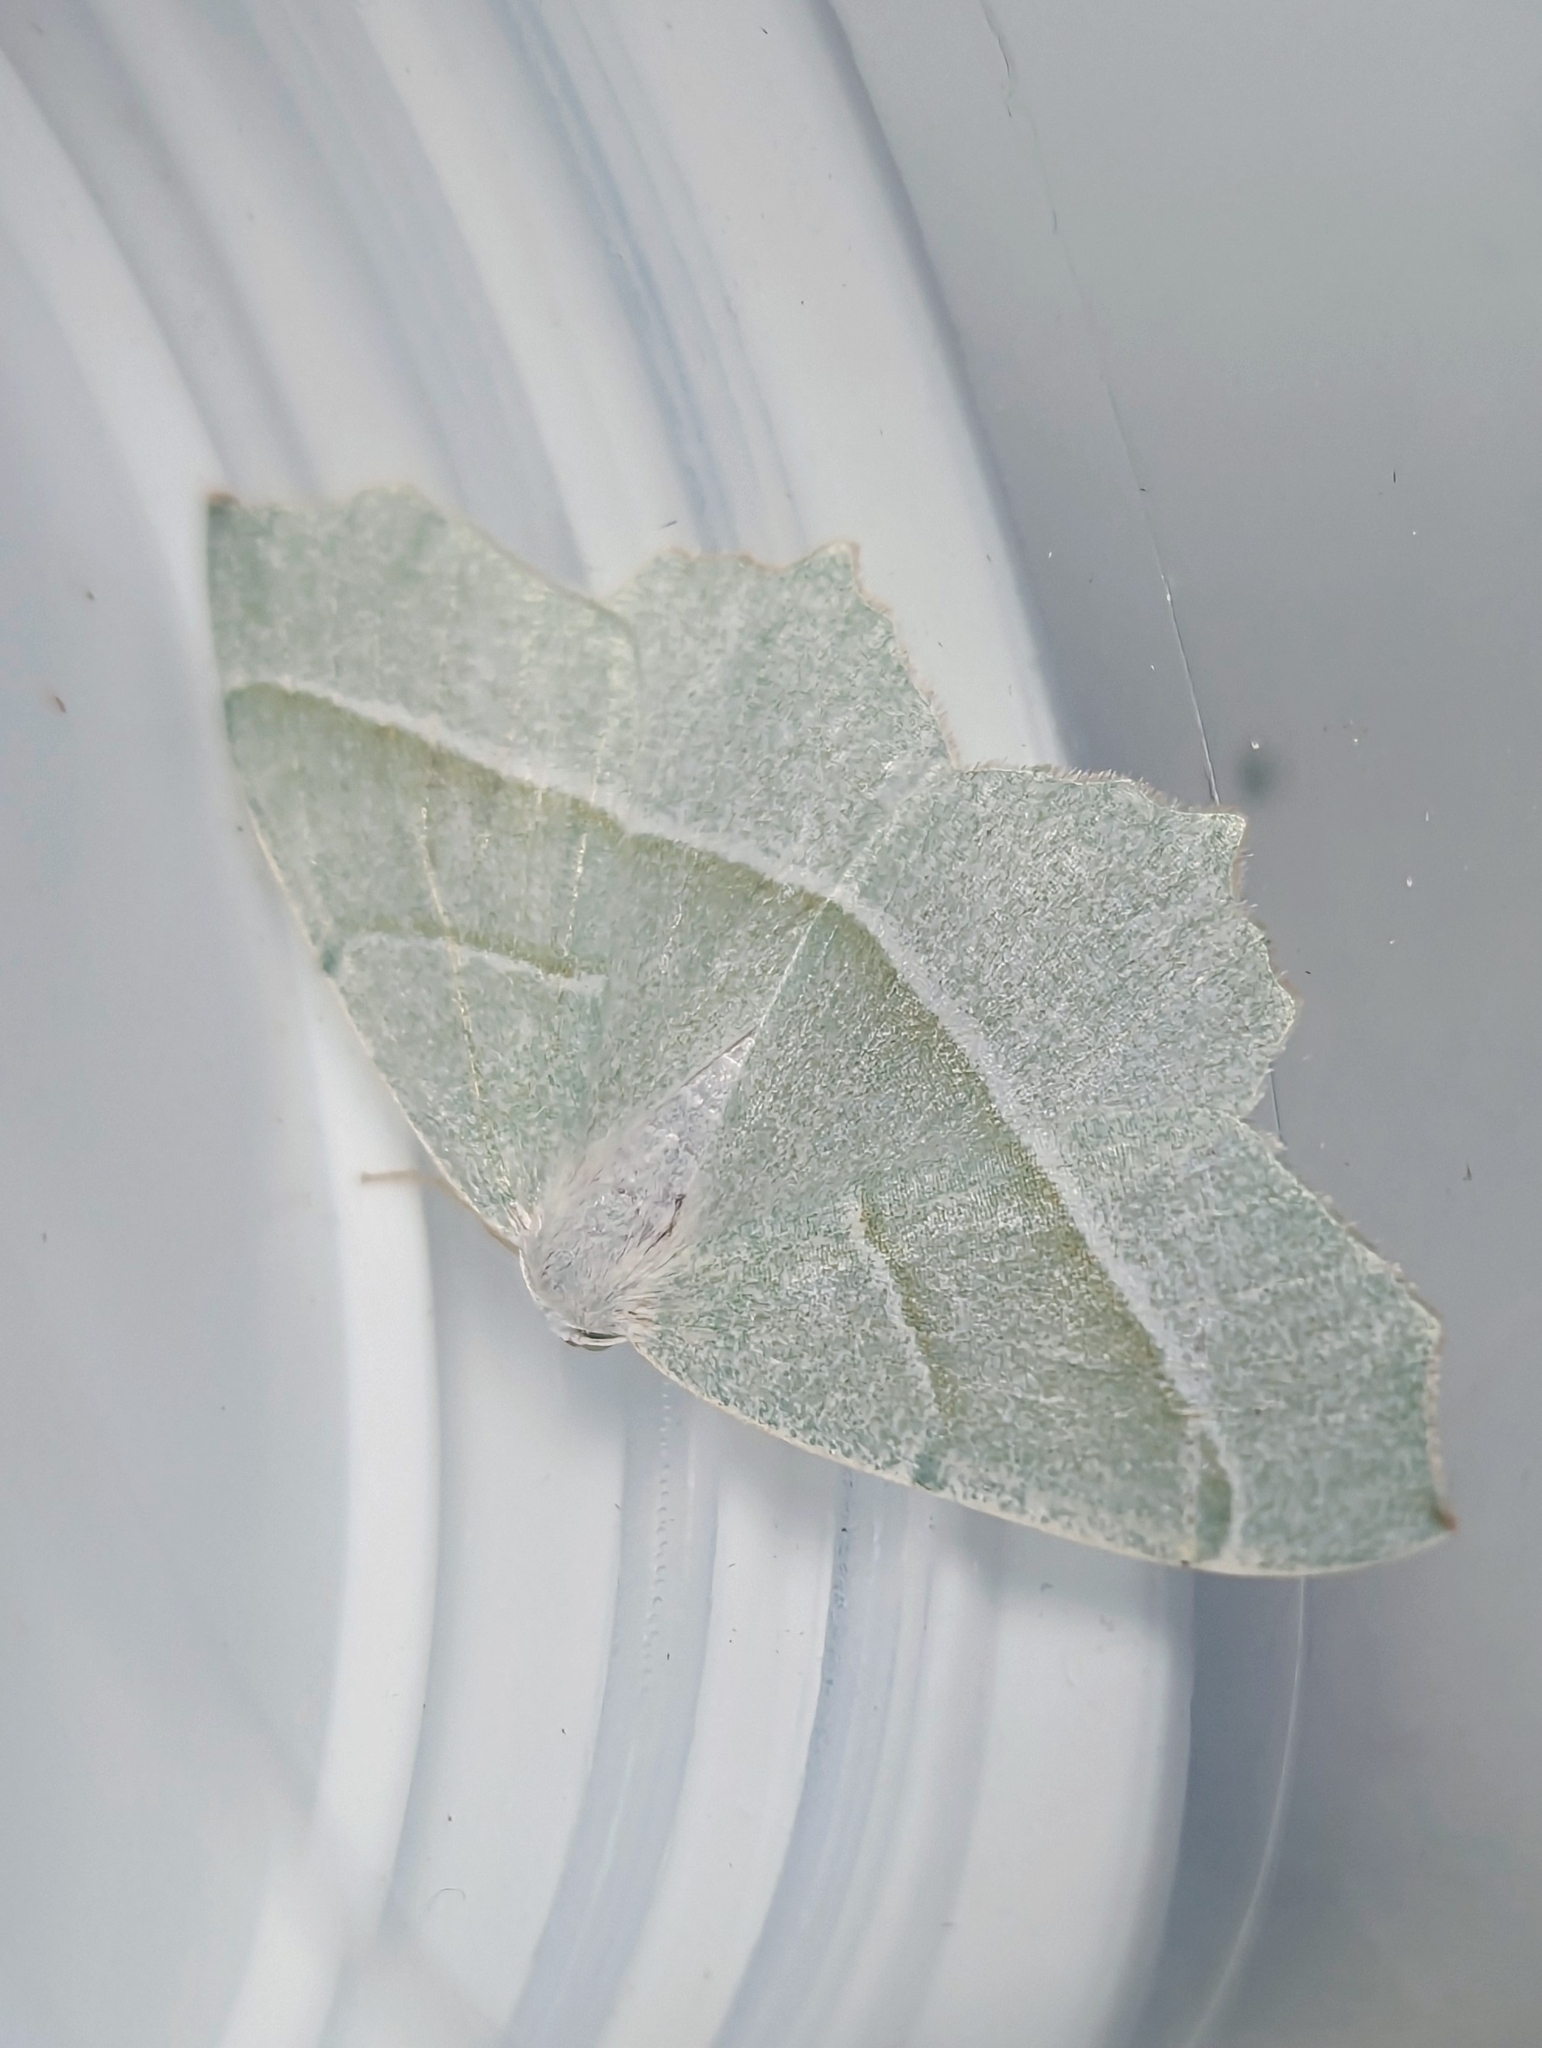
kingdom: Animalia
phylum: Arthropoda
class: Insecta
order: Lepidoptera
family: Geometridae
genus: Campaea
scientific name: Campaea margaritaria
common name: Light emerald
